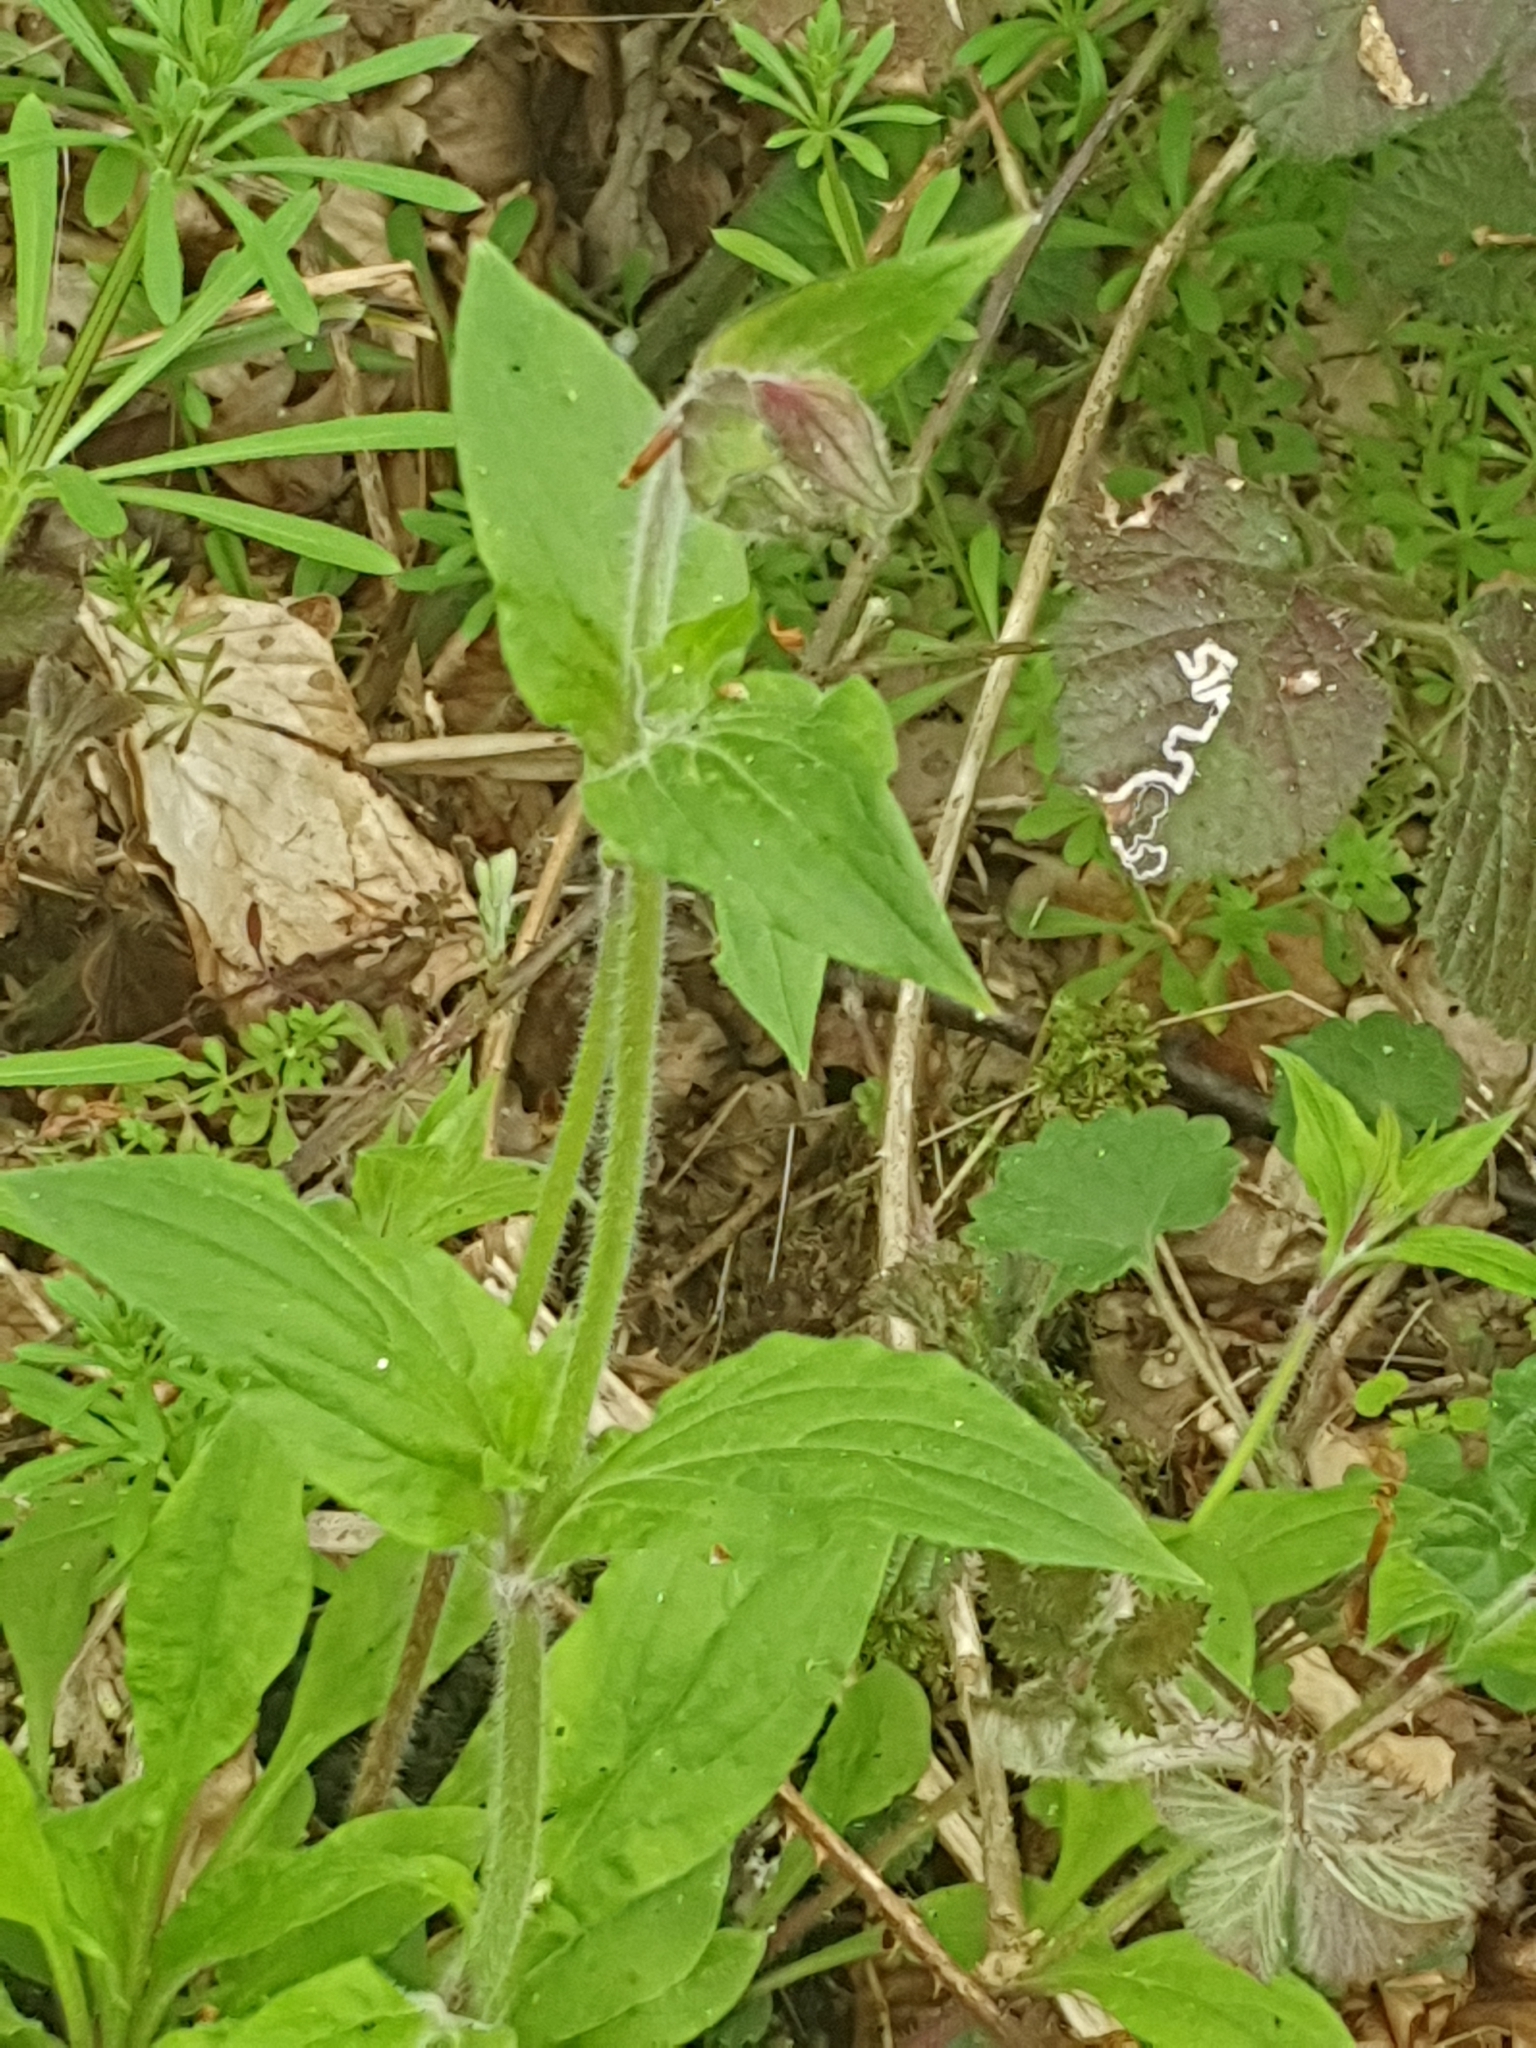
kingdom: Plantae
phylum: Tracheophyta
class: Magnoliopsida
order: Caryophyllales
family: Caryophyllaceae
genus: Silene
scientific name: Silene dioica
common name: Red campion
